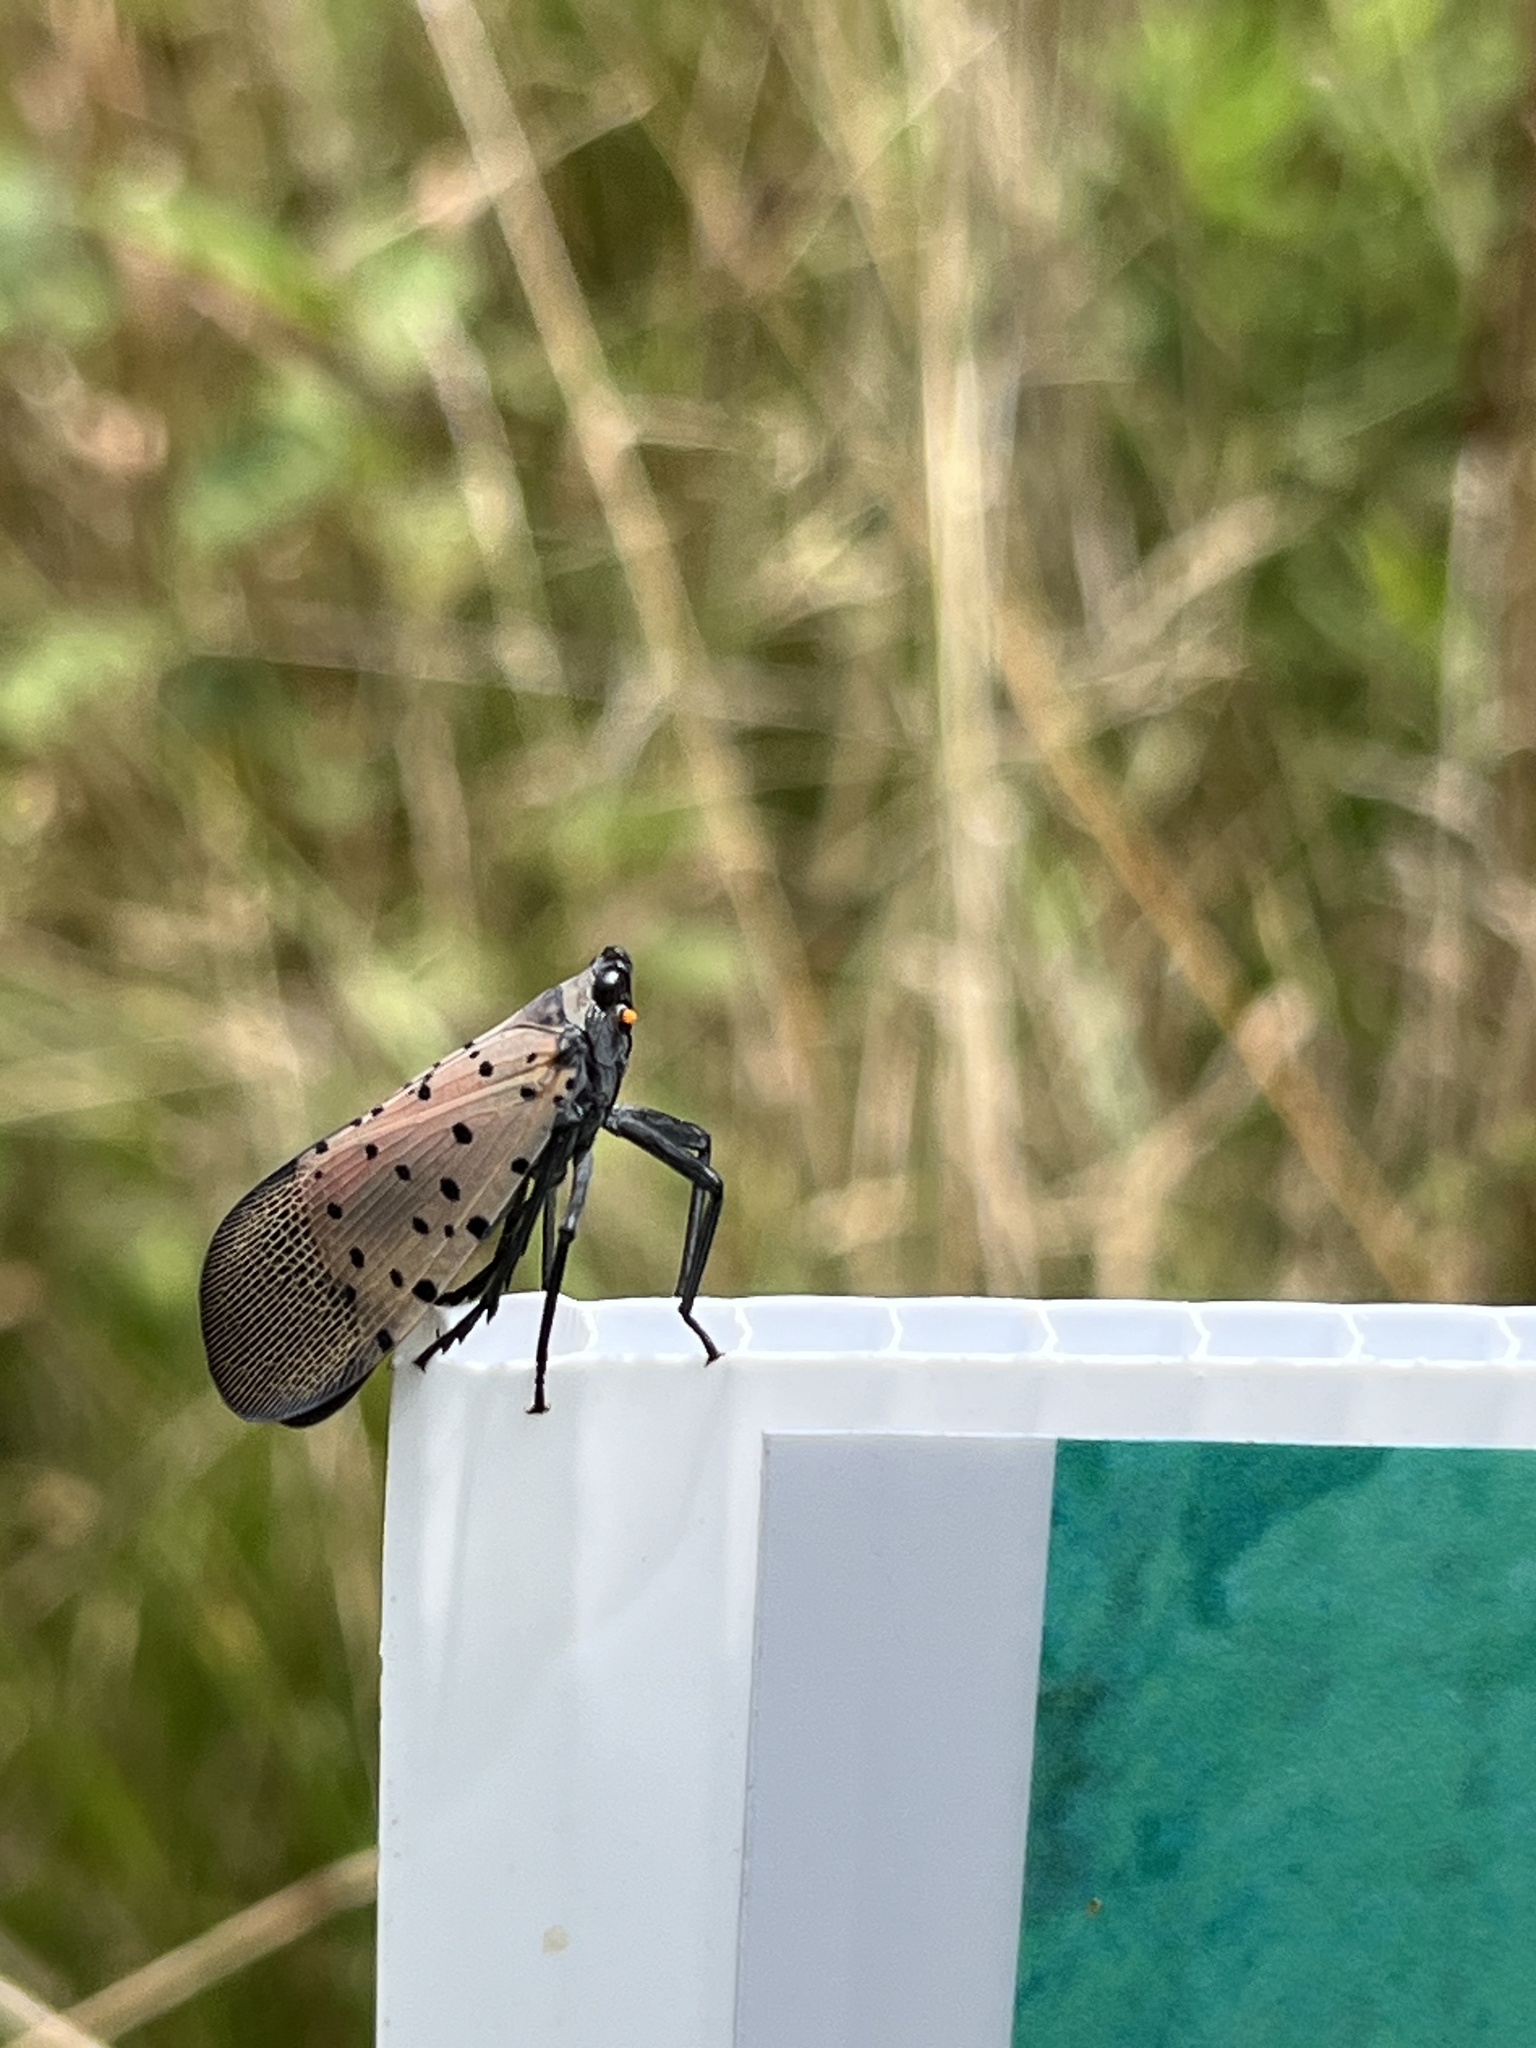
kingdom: Animalia
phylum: Arthropoda
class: Insecta
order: Hemiptera
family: Fulgoridae
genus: Lycorma
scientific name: Lycorma delicatula
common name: Spotted lanternfly
